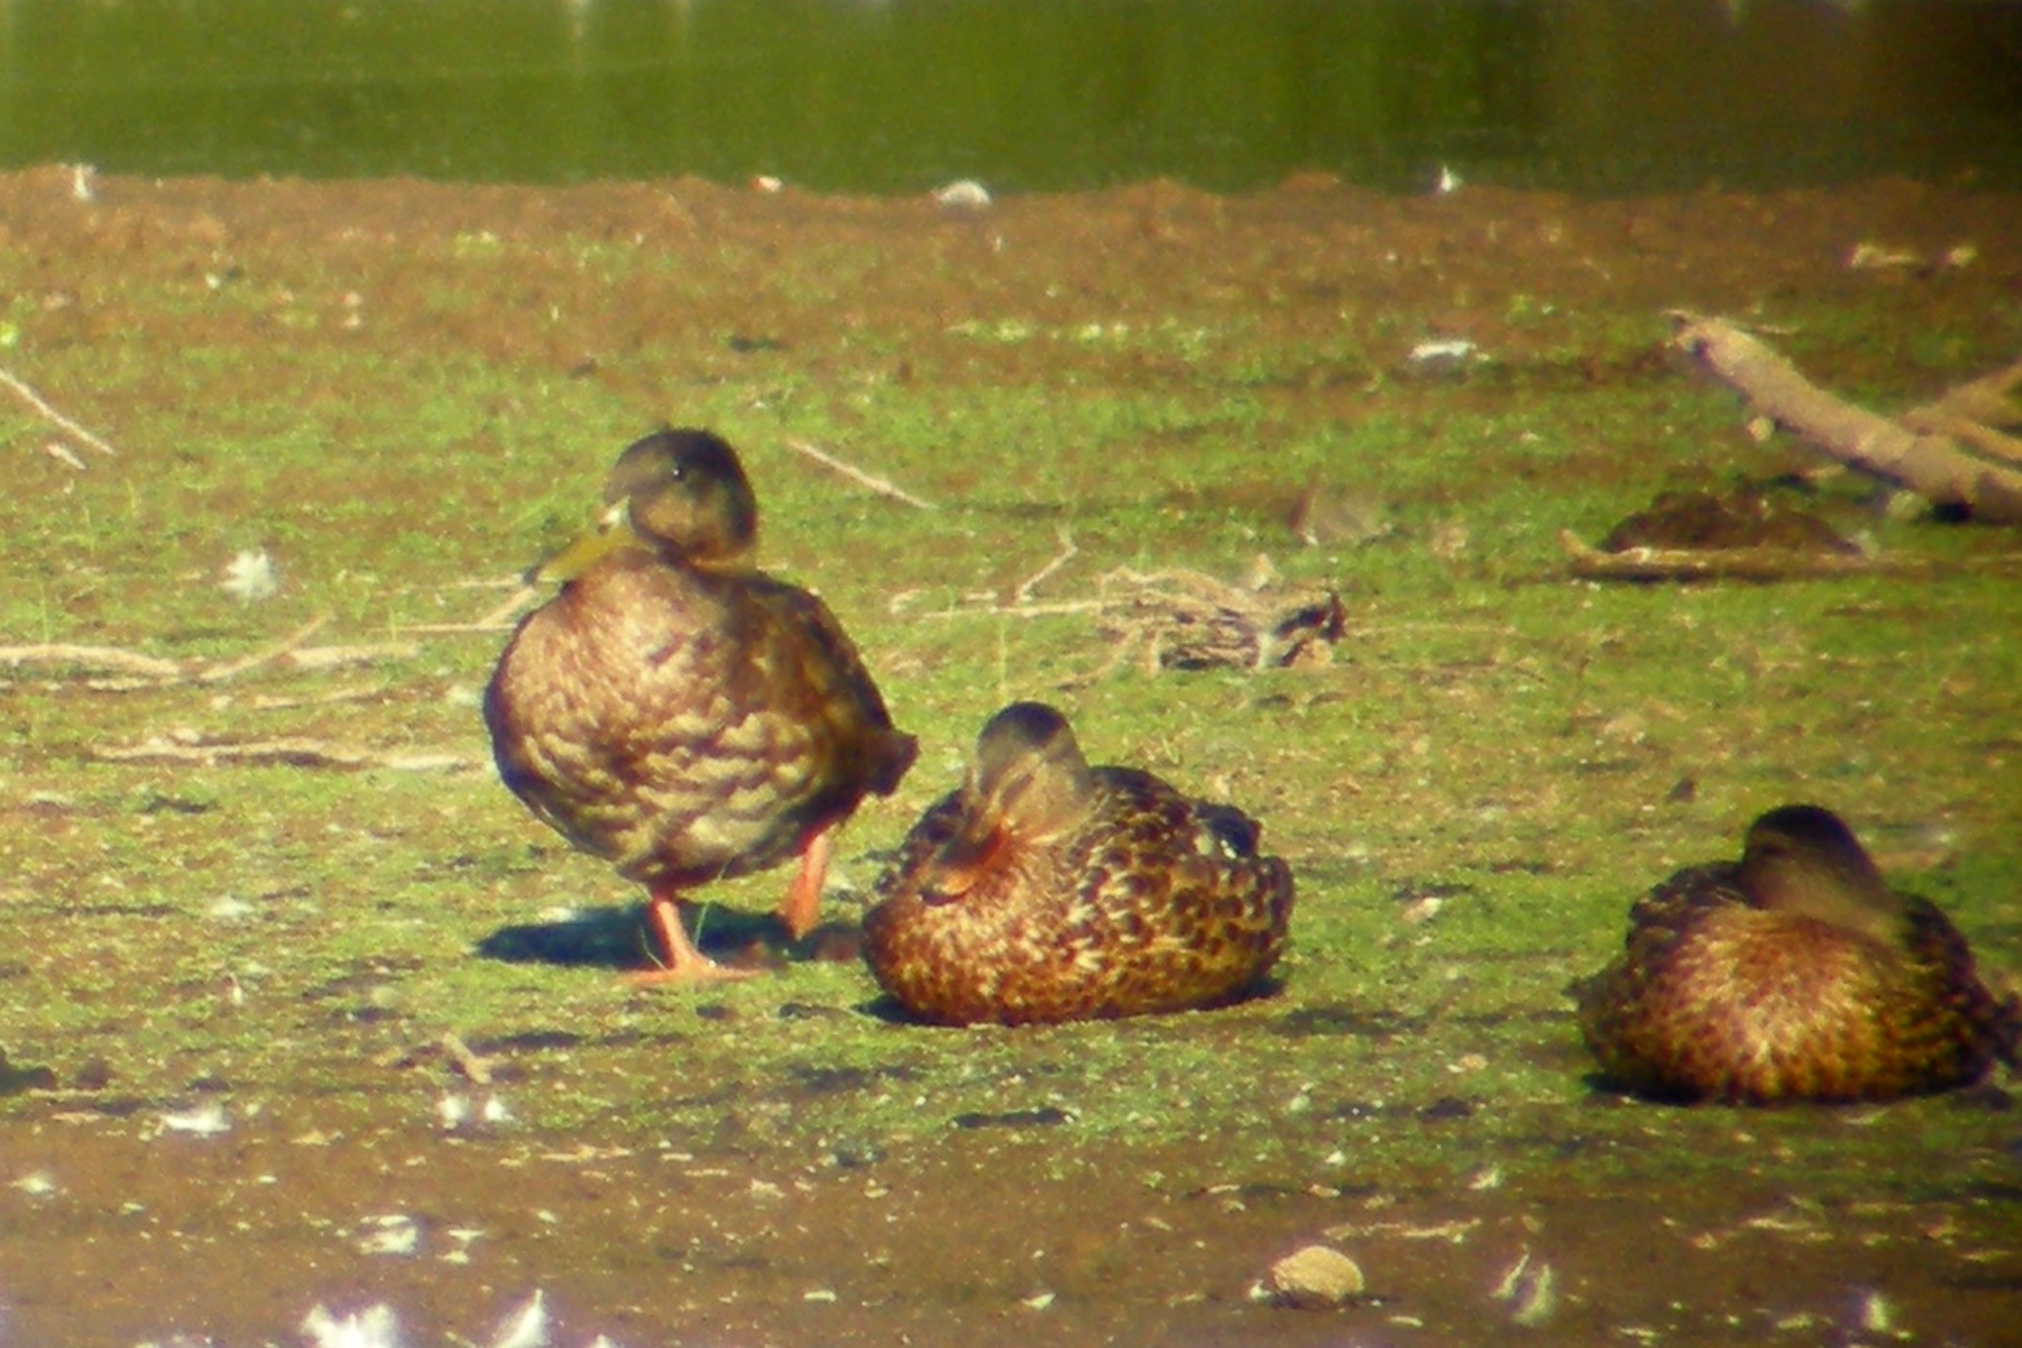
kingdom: Animalia
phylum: Chordata
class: Aves
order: Anseriformes
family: Anatidae
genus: Anas
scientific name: Anas platyrhynchos
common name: Mallard
